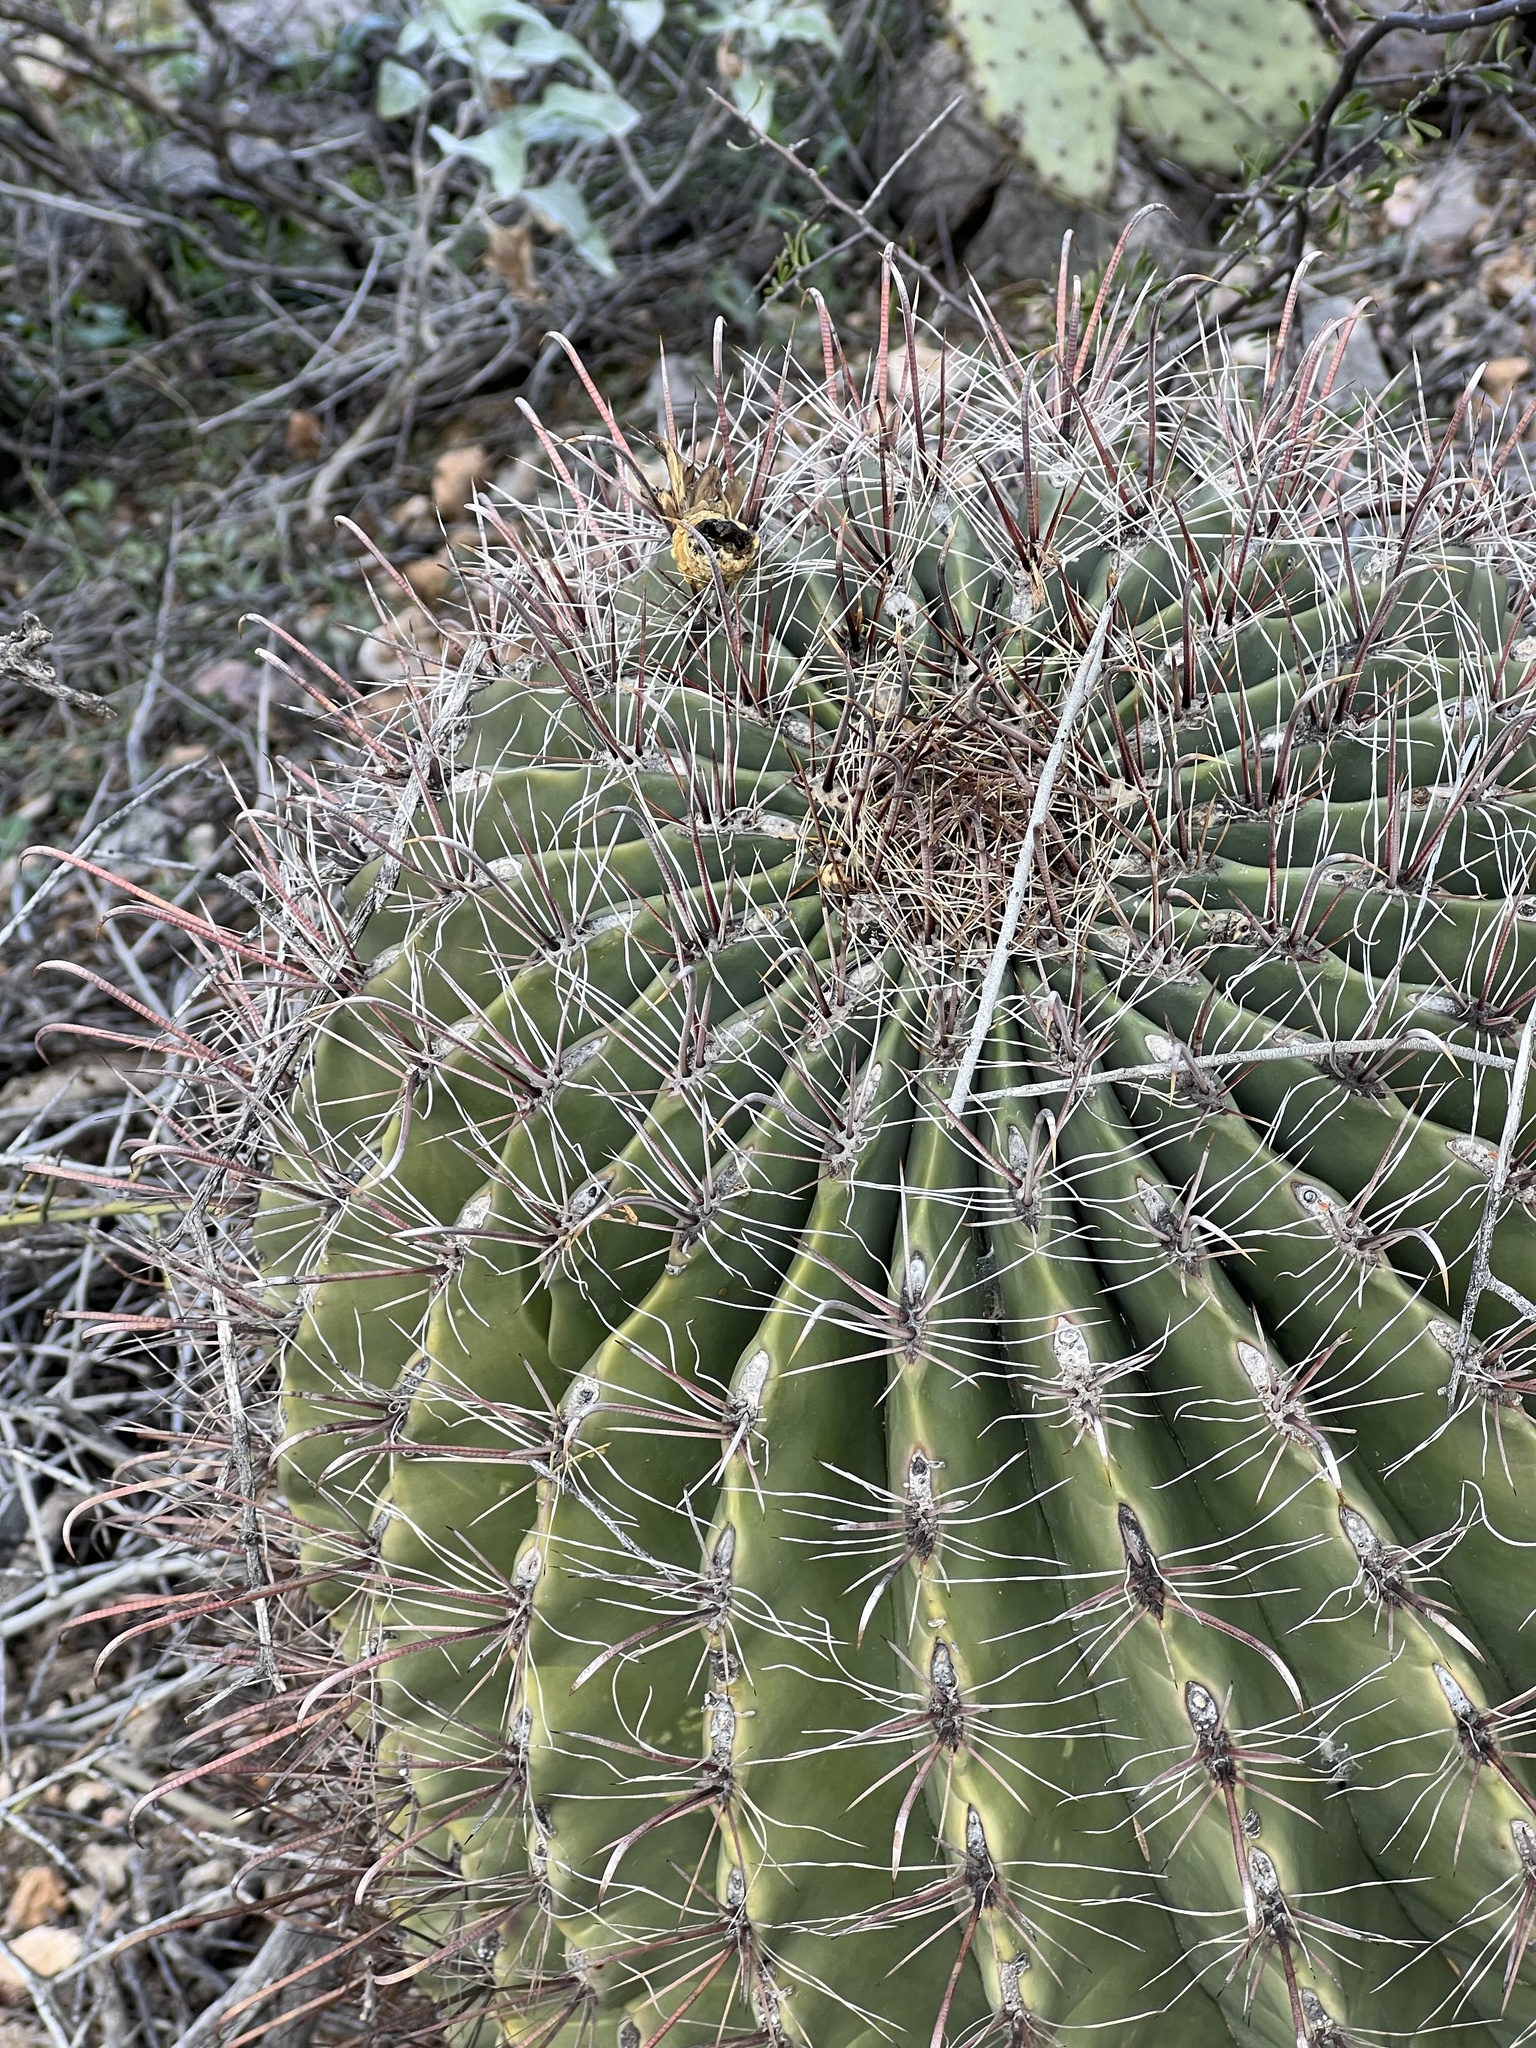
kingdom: Plantae
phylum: Tracheophyta
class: Magnoliopsida
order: Caryophyllales
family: Cactaceae
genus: Ferocactus
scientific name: Ferocactus wislizeni
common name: Candy barrel cactus
